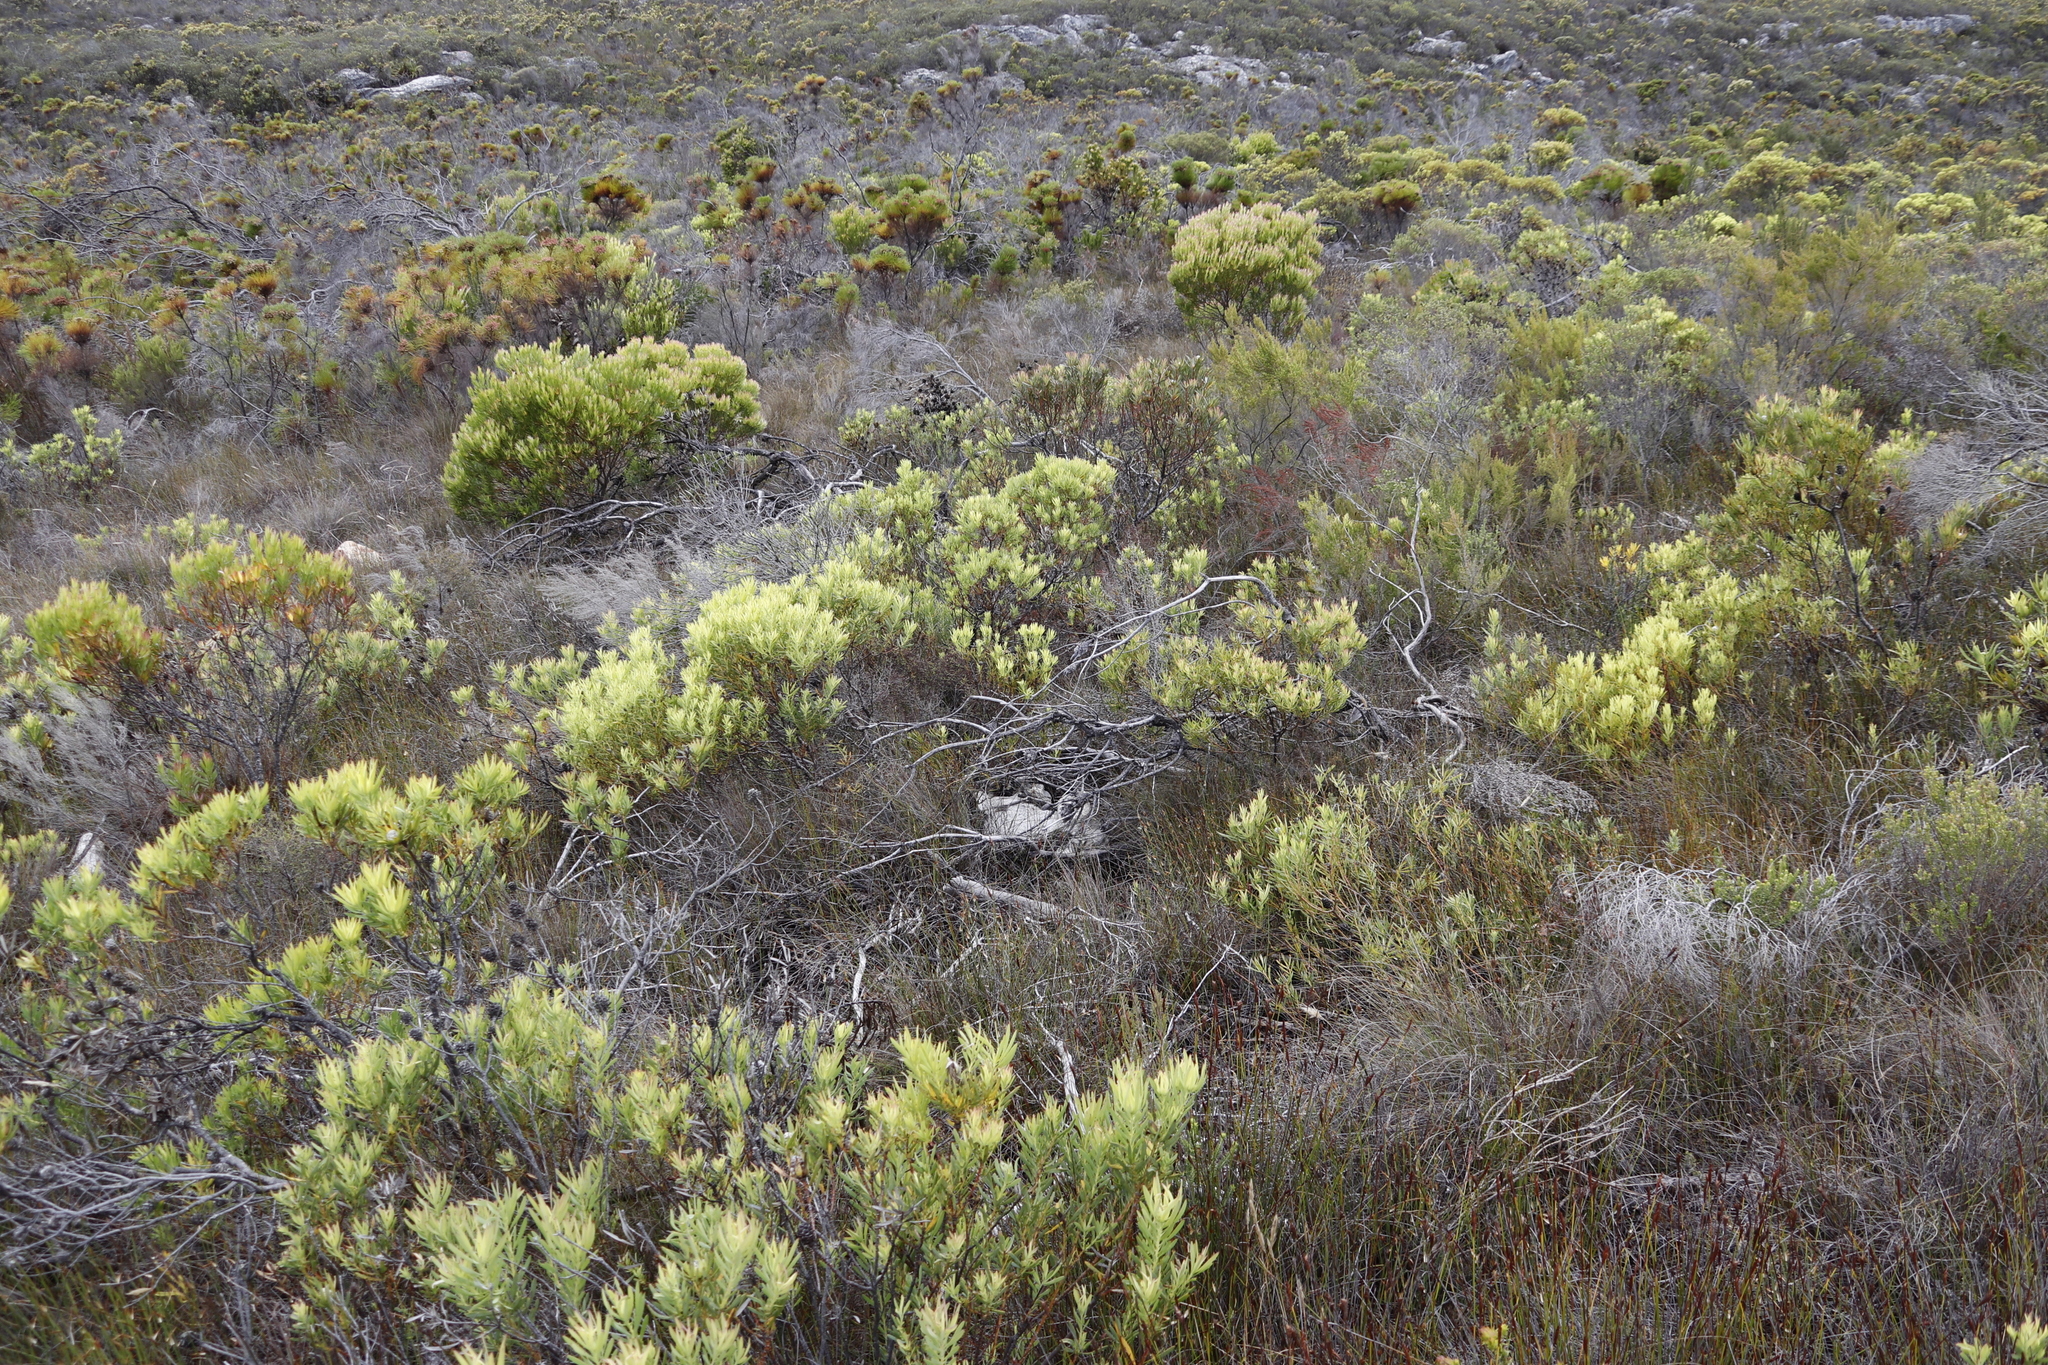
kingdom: Plantae
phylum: Tracheophyta
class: Magnoliopsida
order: Proteales
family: Proteaceae
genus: Leucadendron
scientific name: Leucadendron xanthoconus
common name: Sickle-leaf conebush
